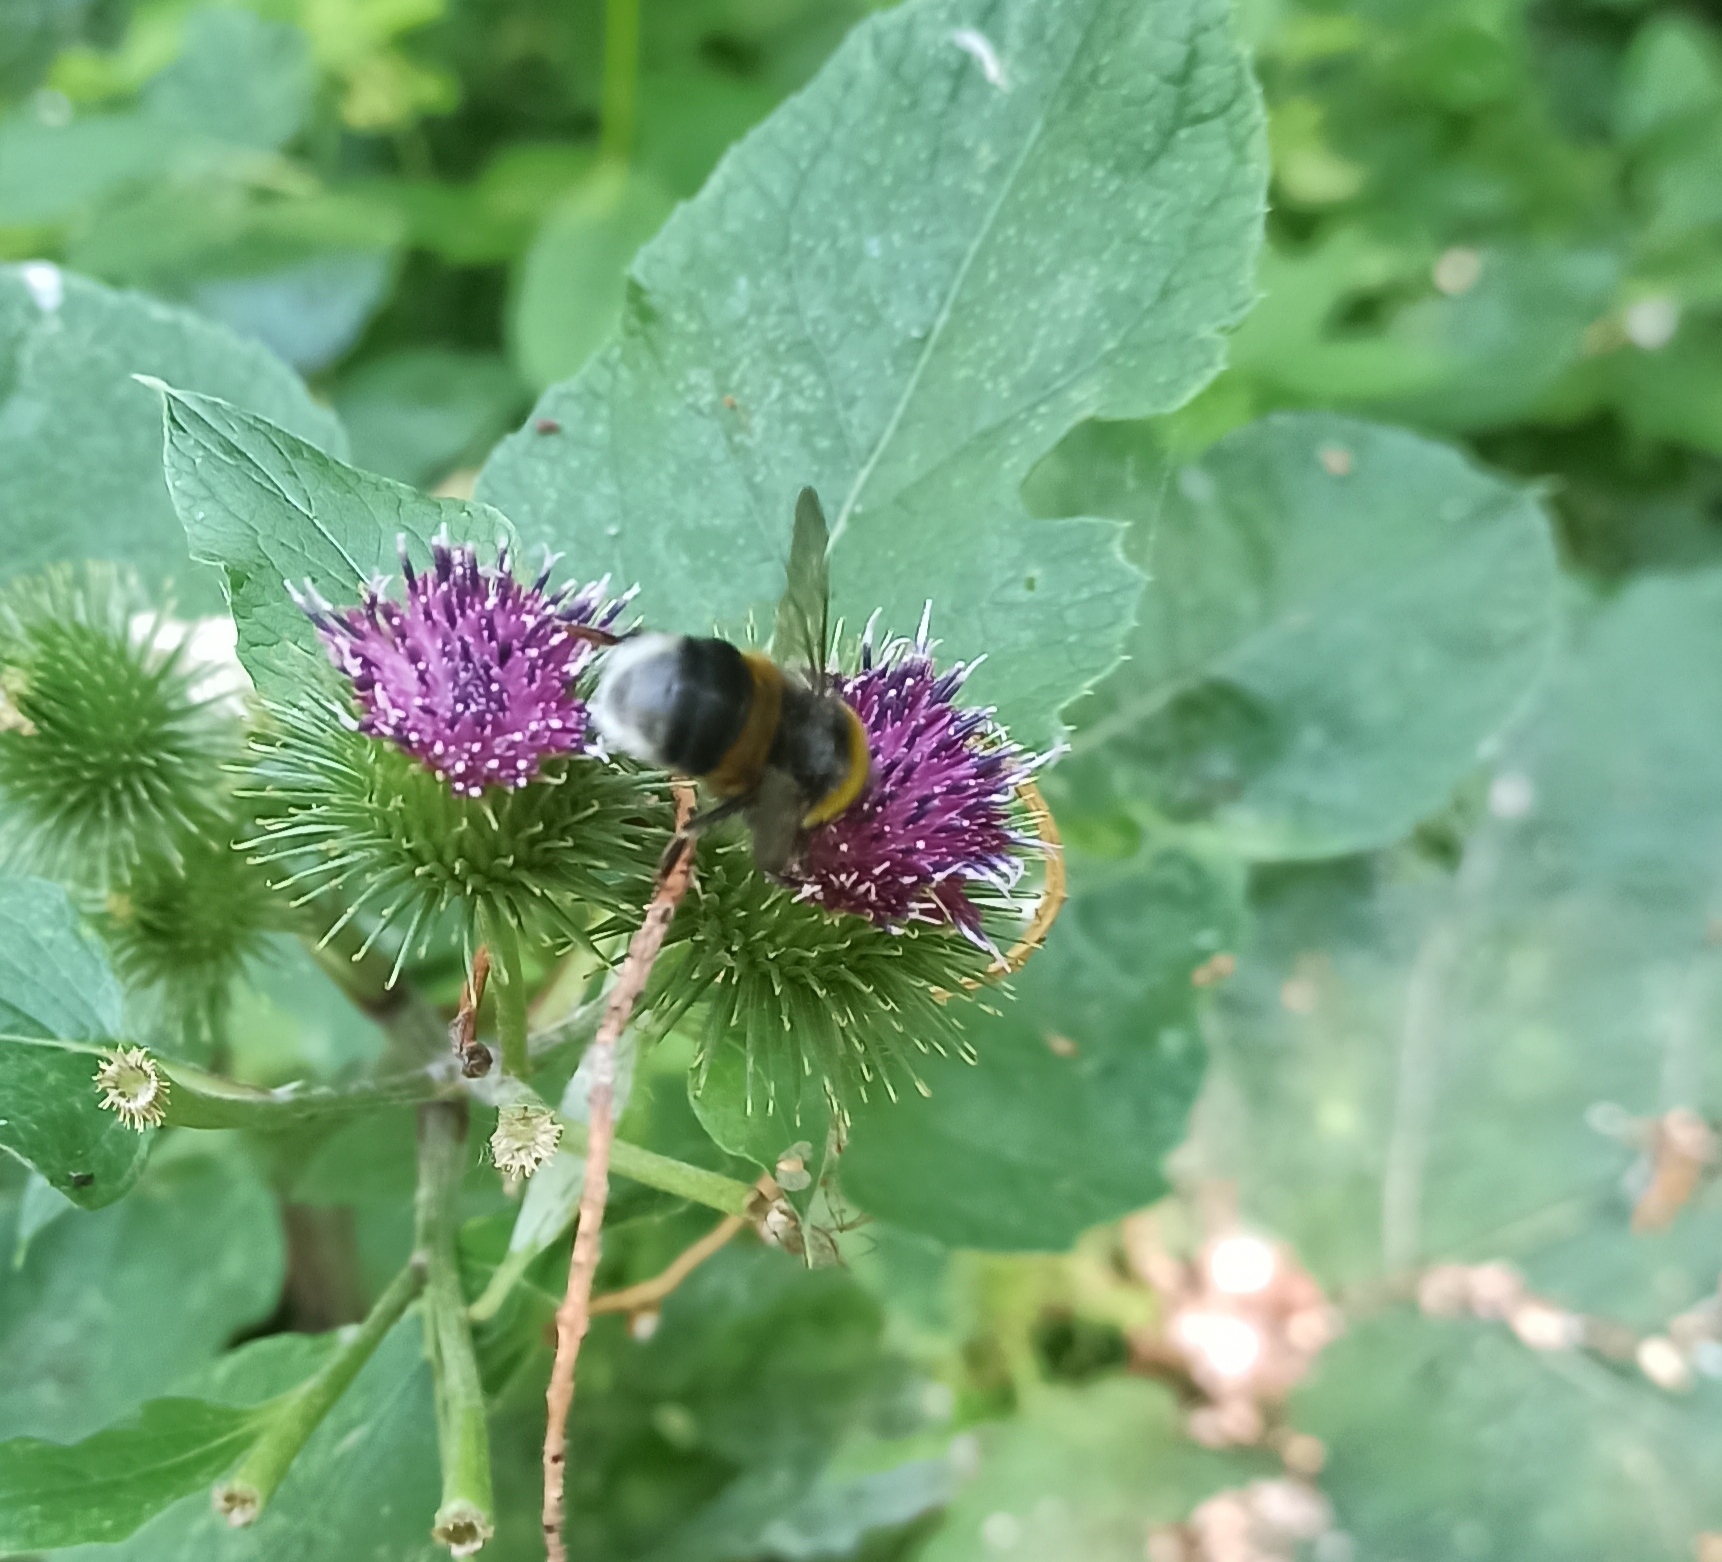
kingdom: Animalia
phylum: Arthropoda
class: Insecta
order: Hymenoptera
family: Apidae
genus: Bombus
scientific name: Bombus
